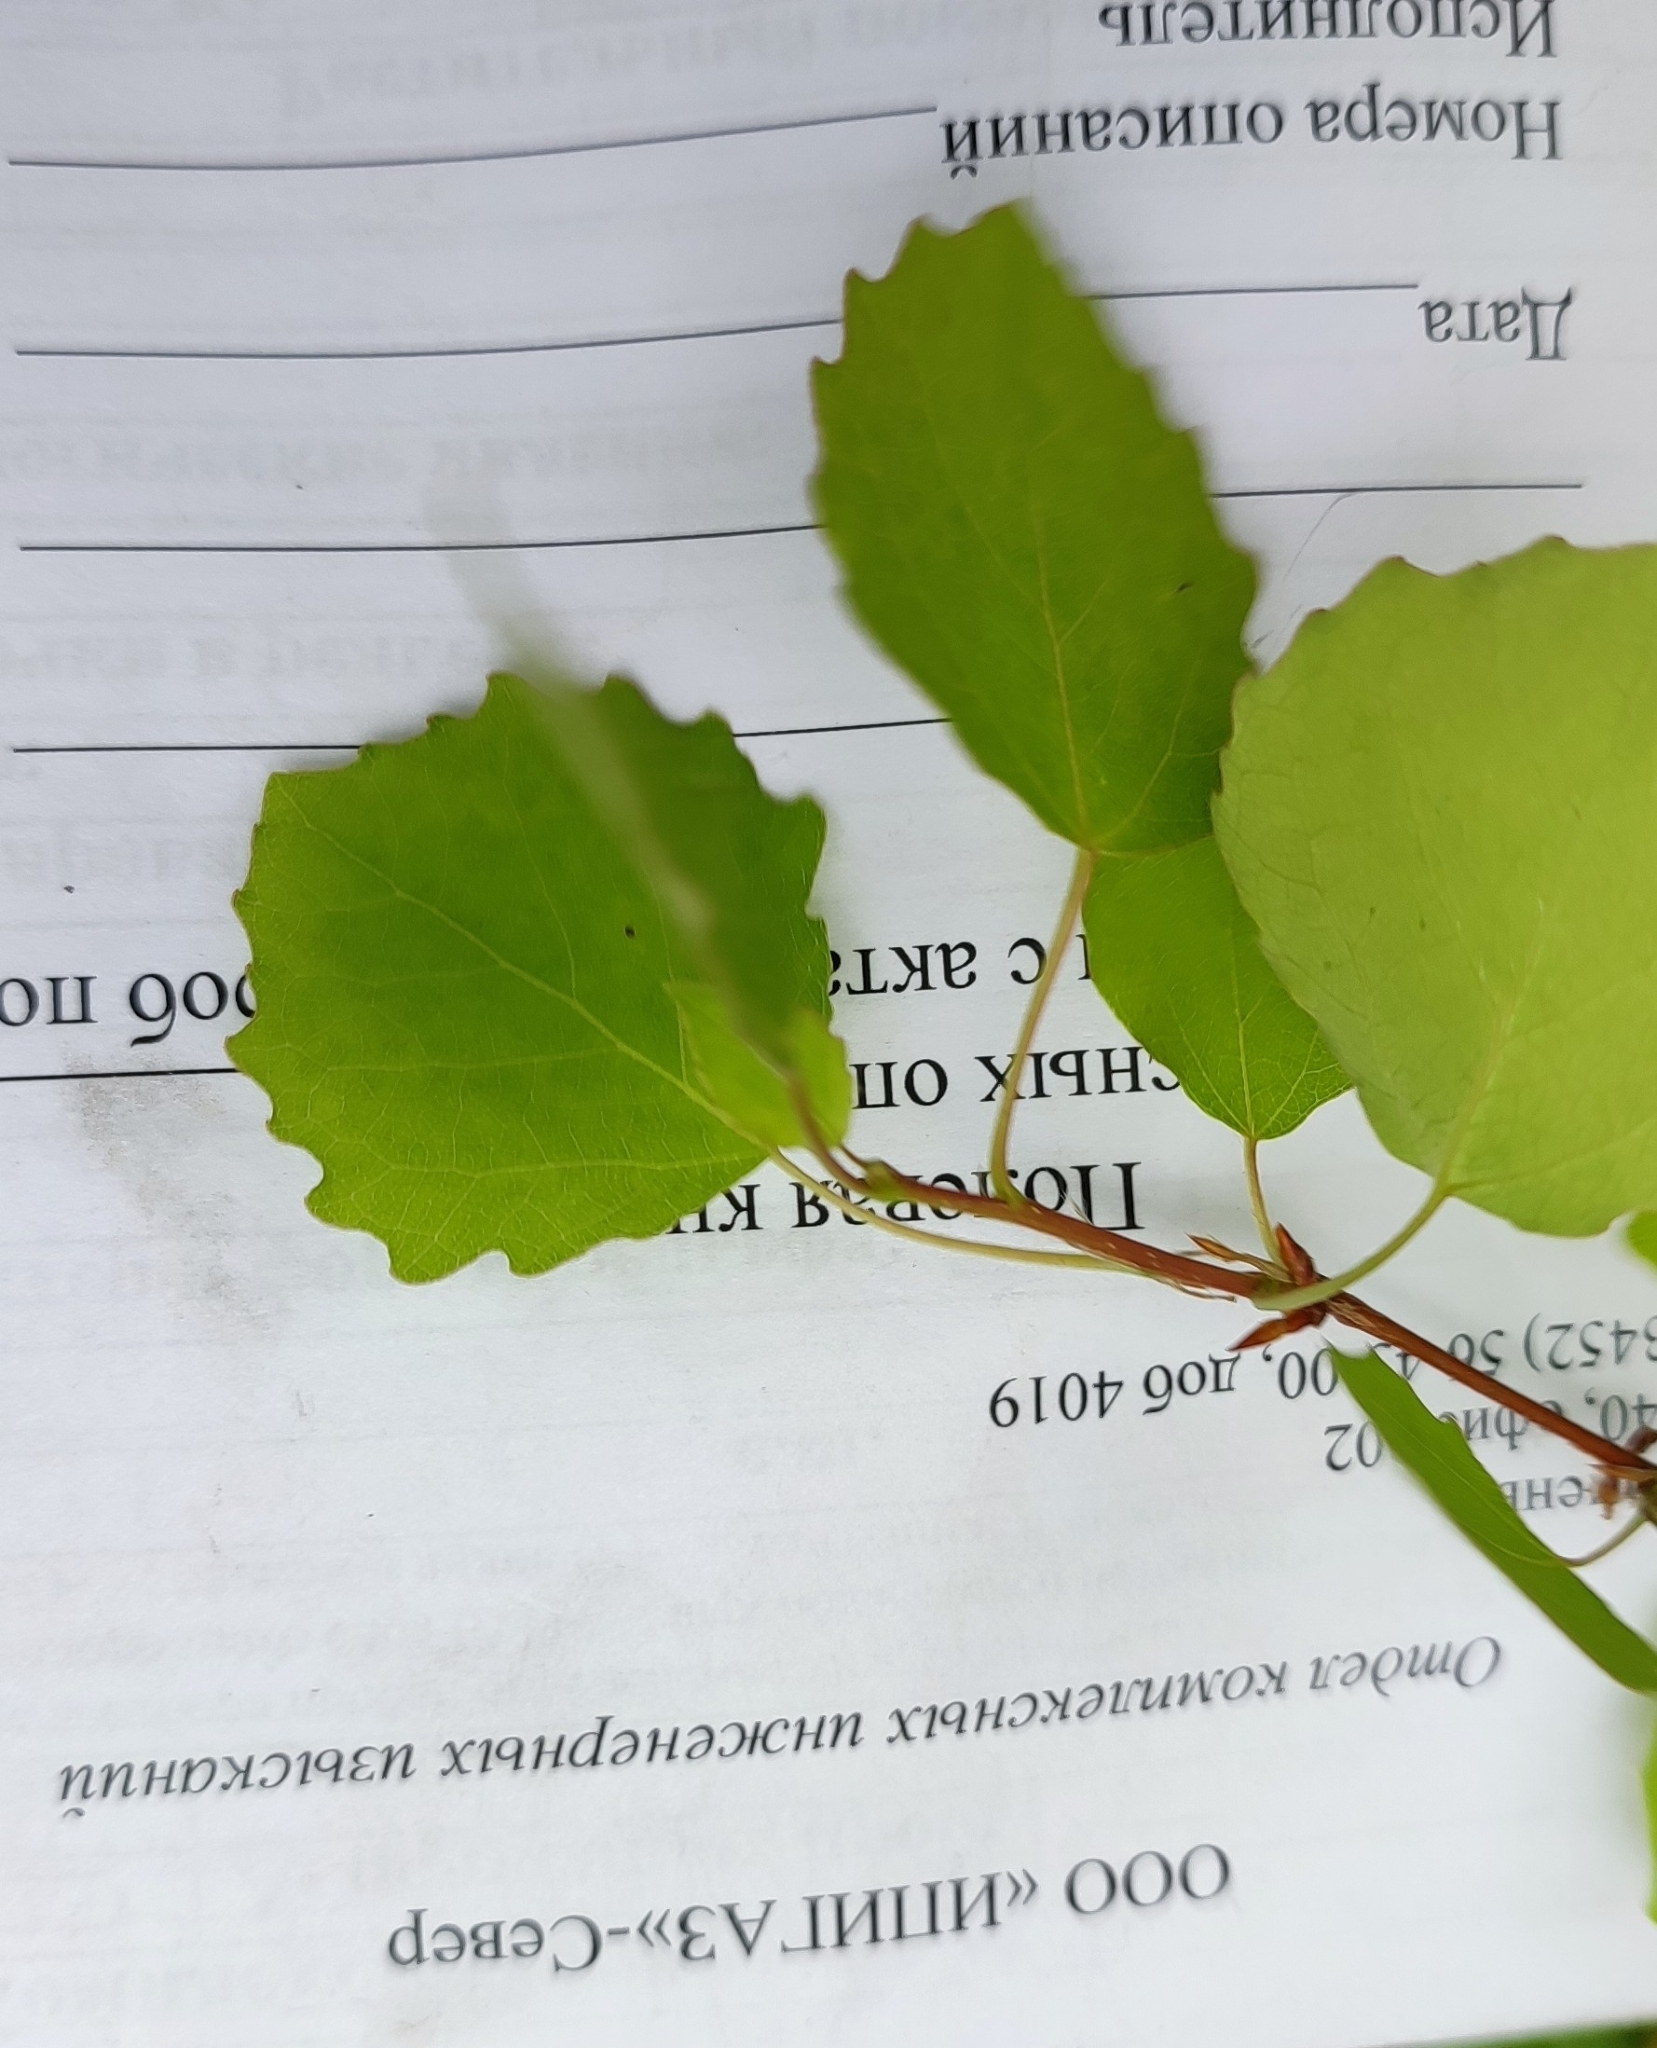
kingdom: Plantae
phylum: Tracheophyta
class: Magnoliopsida
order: Malpighiales
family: Salicaceae
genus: Populus
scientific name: Populus tremula
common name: European aspen
